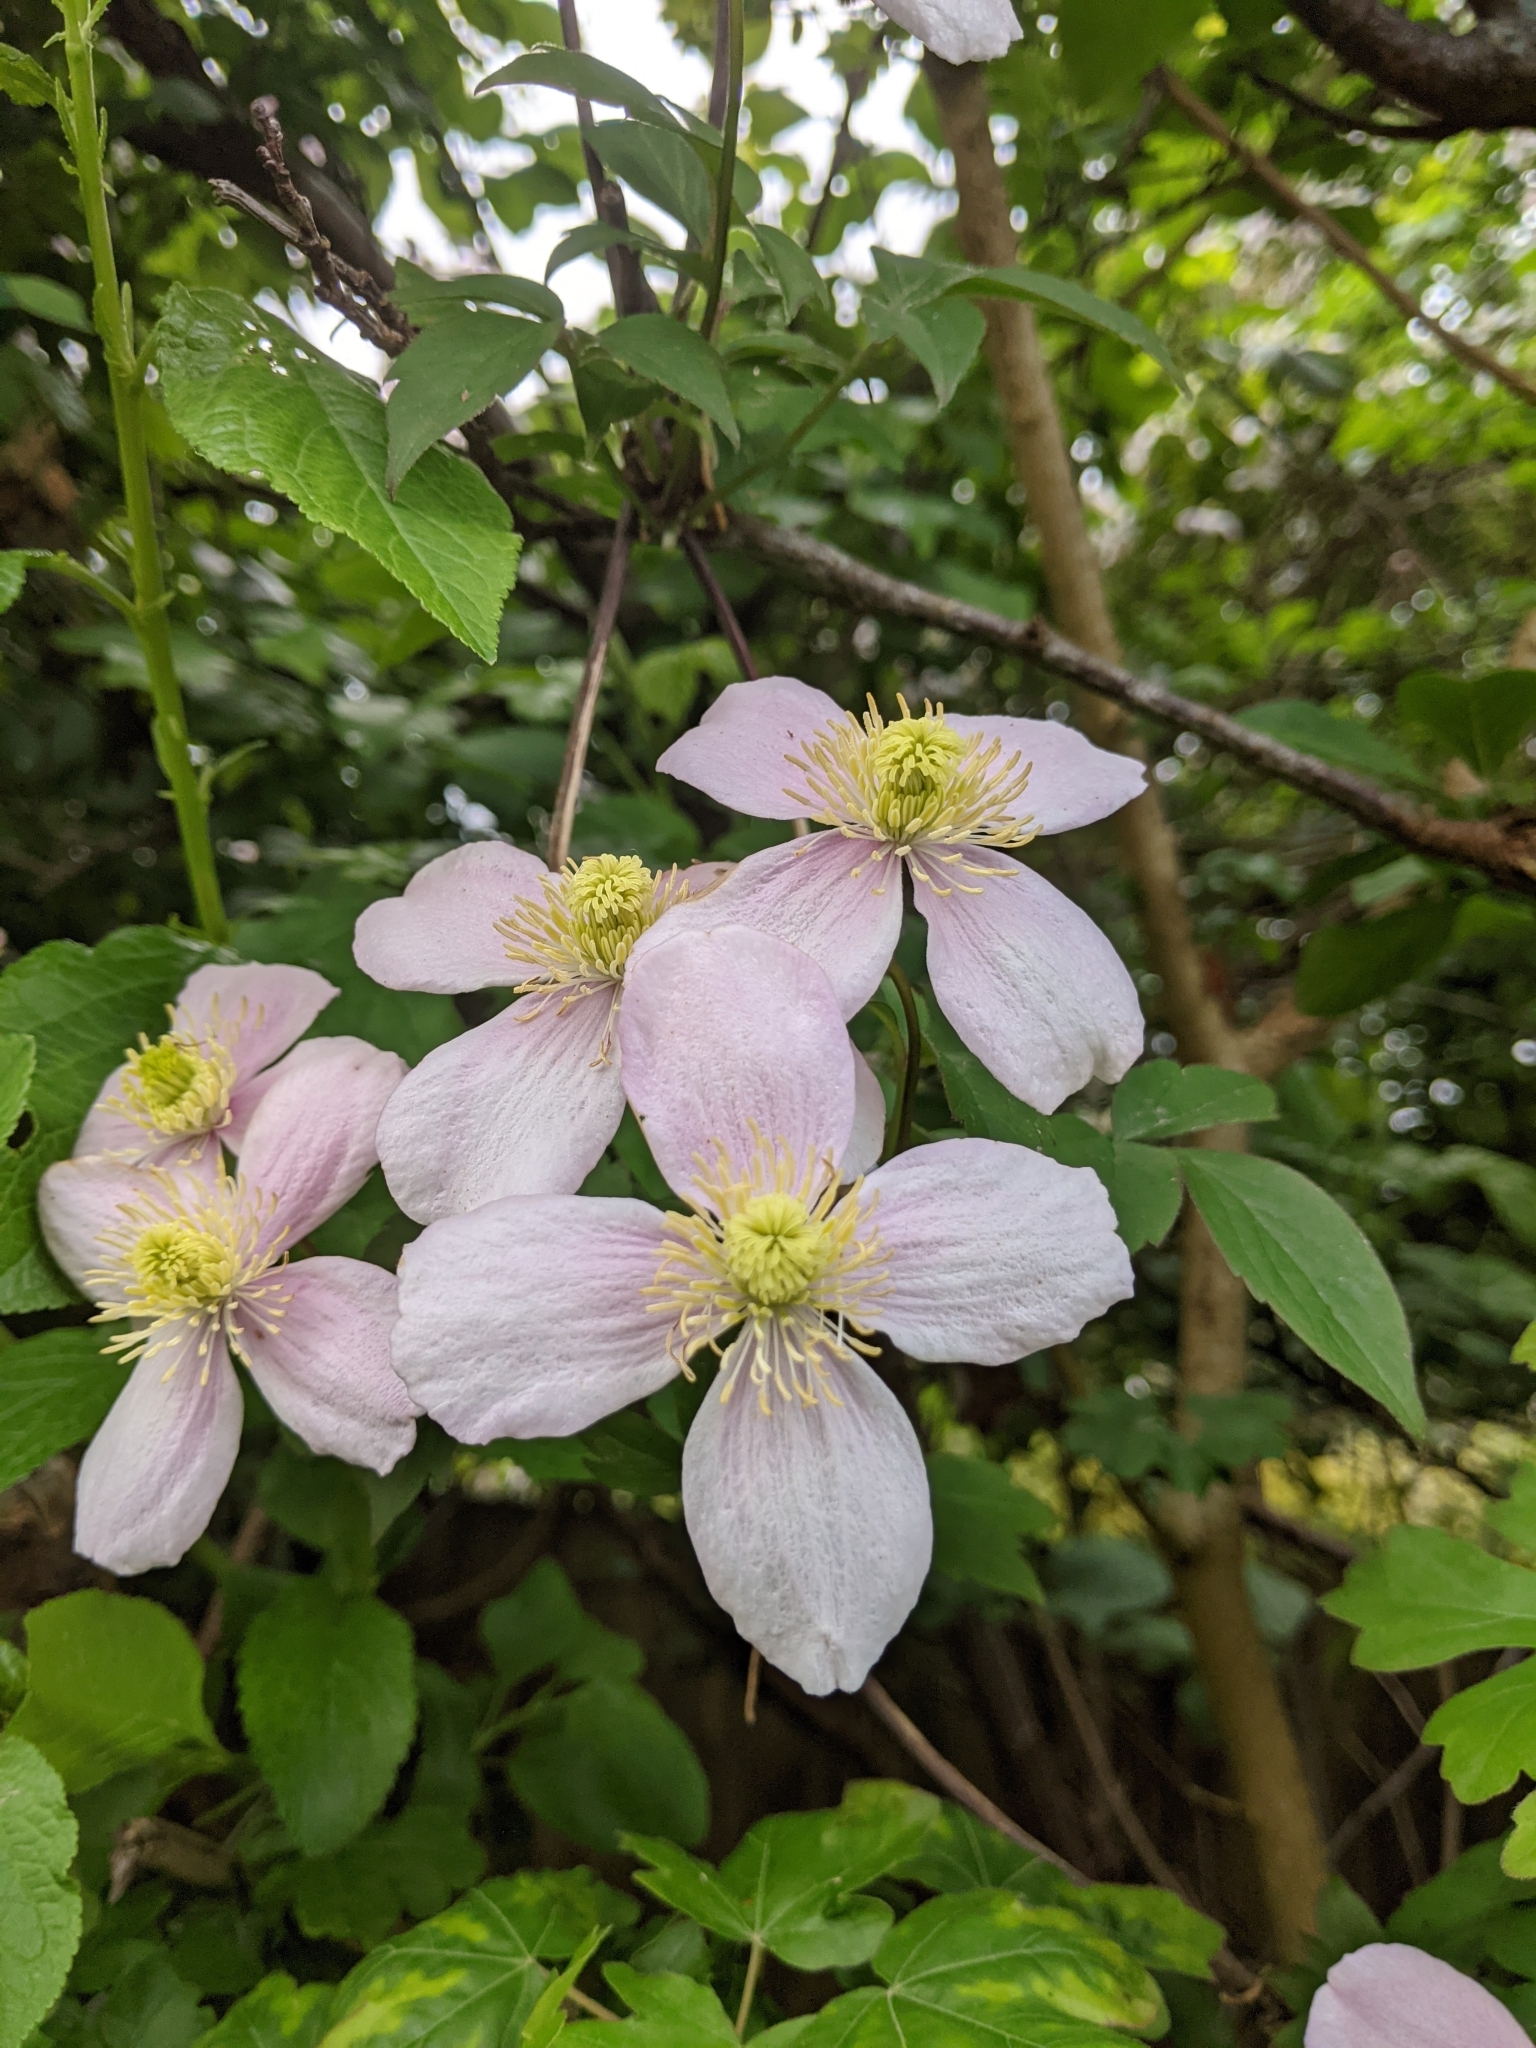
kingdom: Plantae
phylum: Tracheophyta
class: Magnoliopsida
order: Ranunculales
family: Ranunculaceae
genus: Clematis
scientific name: Clematis montana
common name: Himalayan clematis
